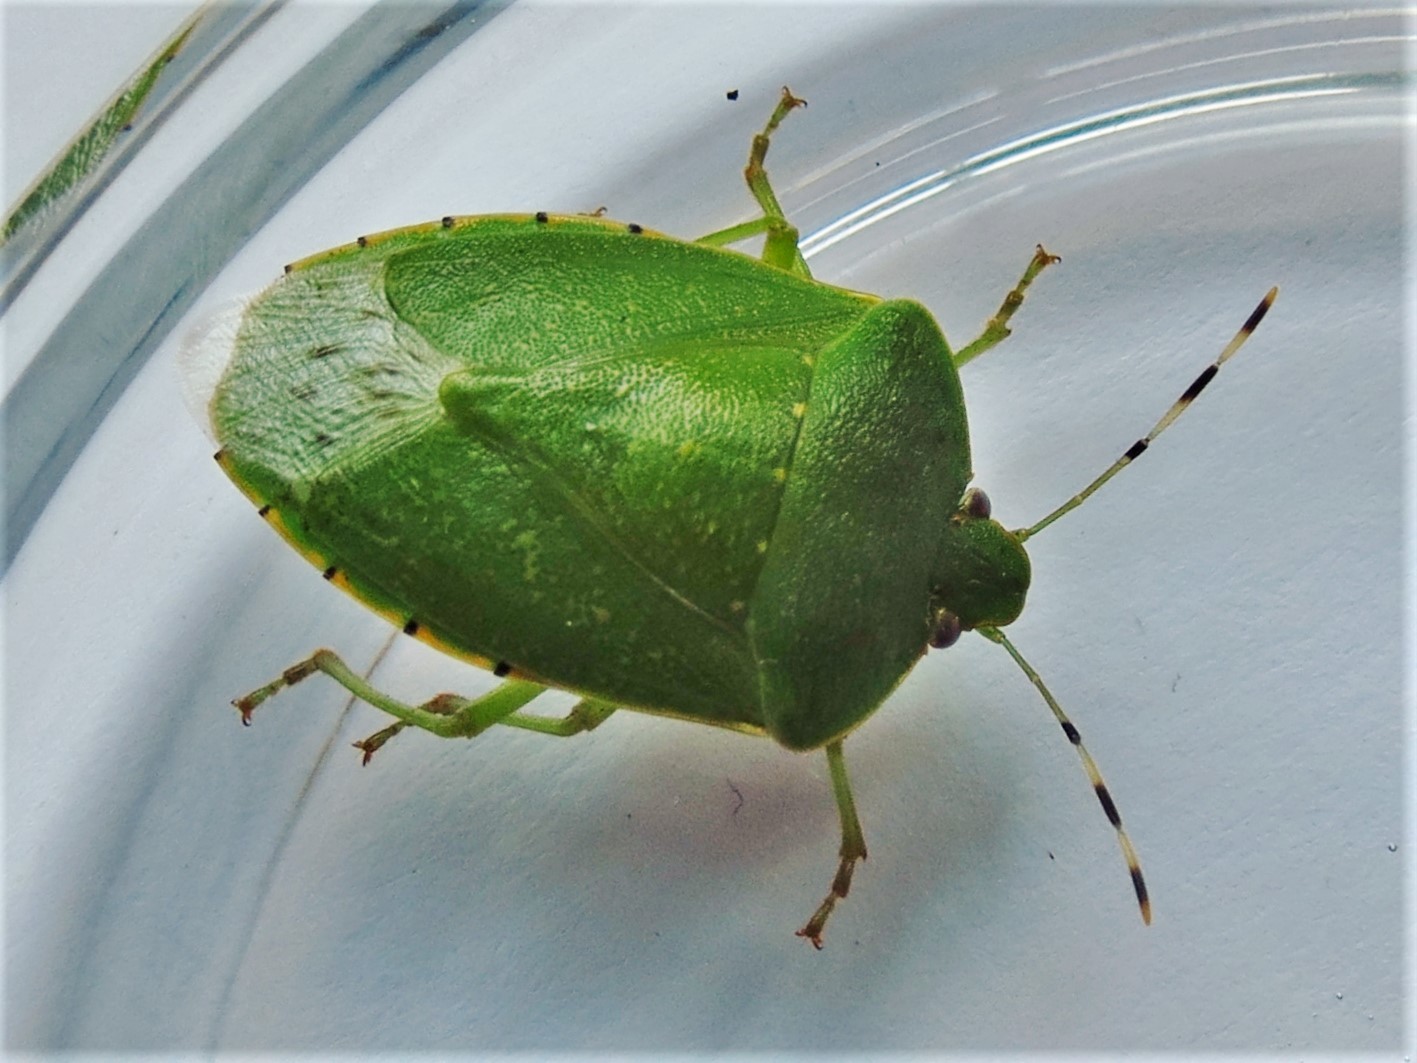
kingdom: Animalia
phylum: Arthropoda
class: Insecta
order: Hemiptera
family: Pentatomidae
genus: Chinavia
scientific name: Chinavia hilaris
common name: Green stink bug
